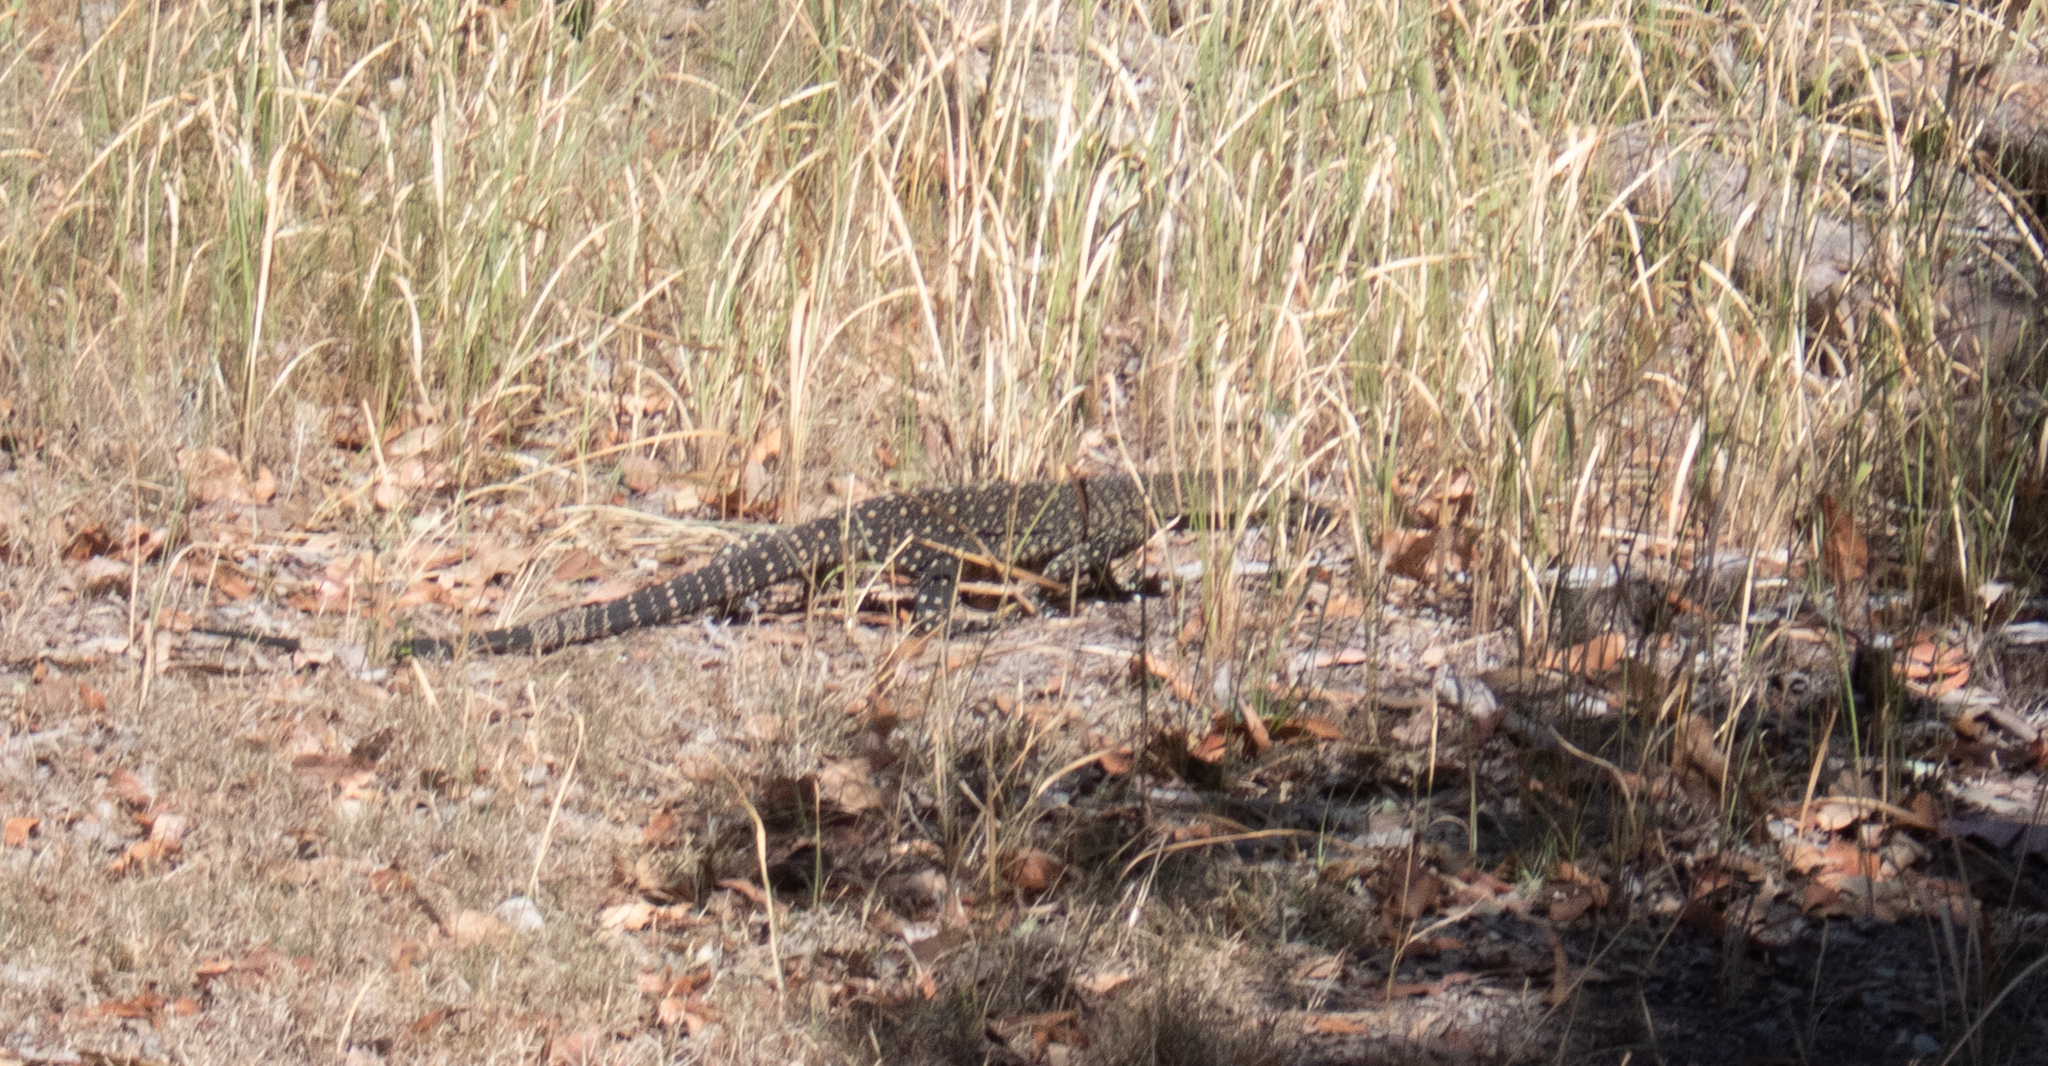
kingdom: Animalia
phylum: Chordata
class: Squamata
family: Varanidae
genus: Varanus
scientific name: Varanus varius
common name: Lace monitor
